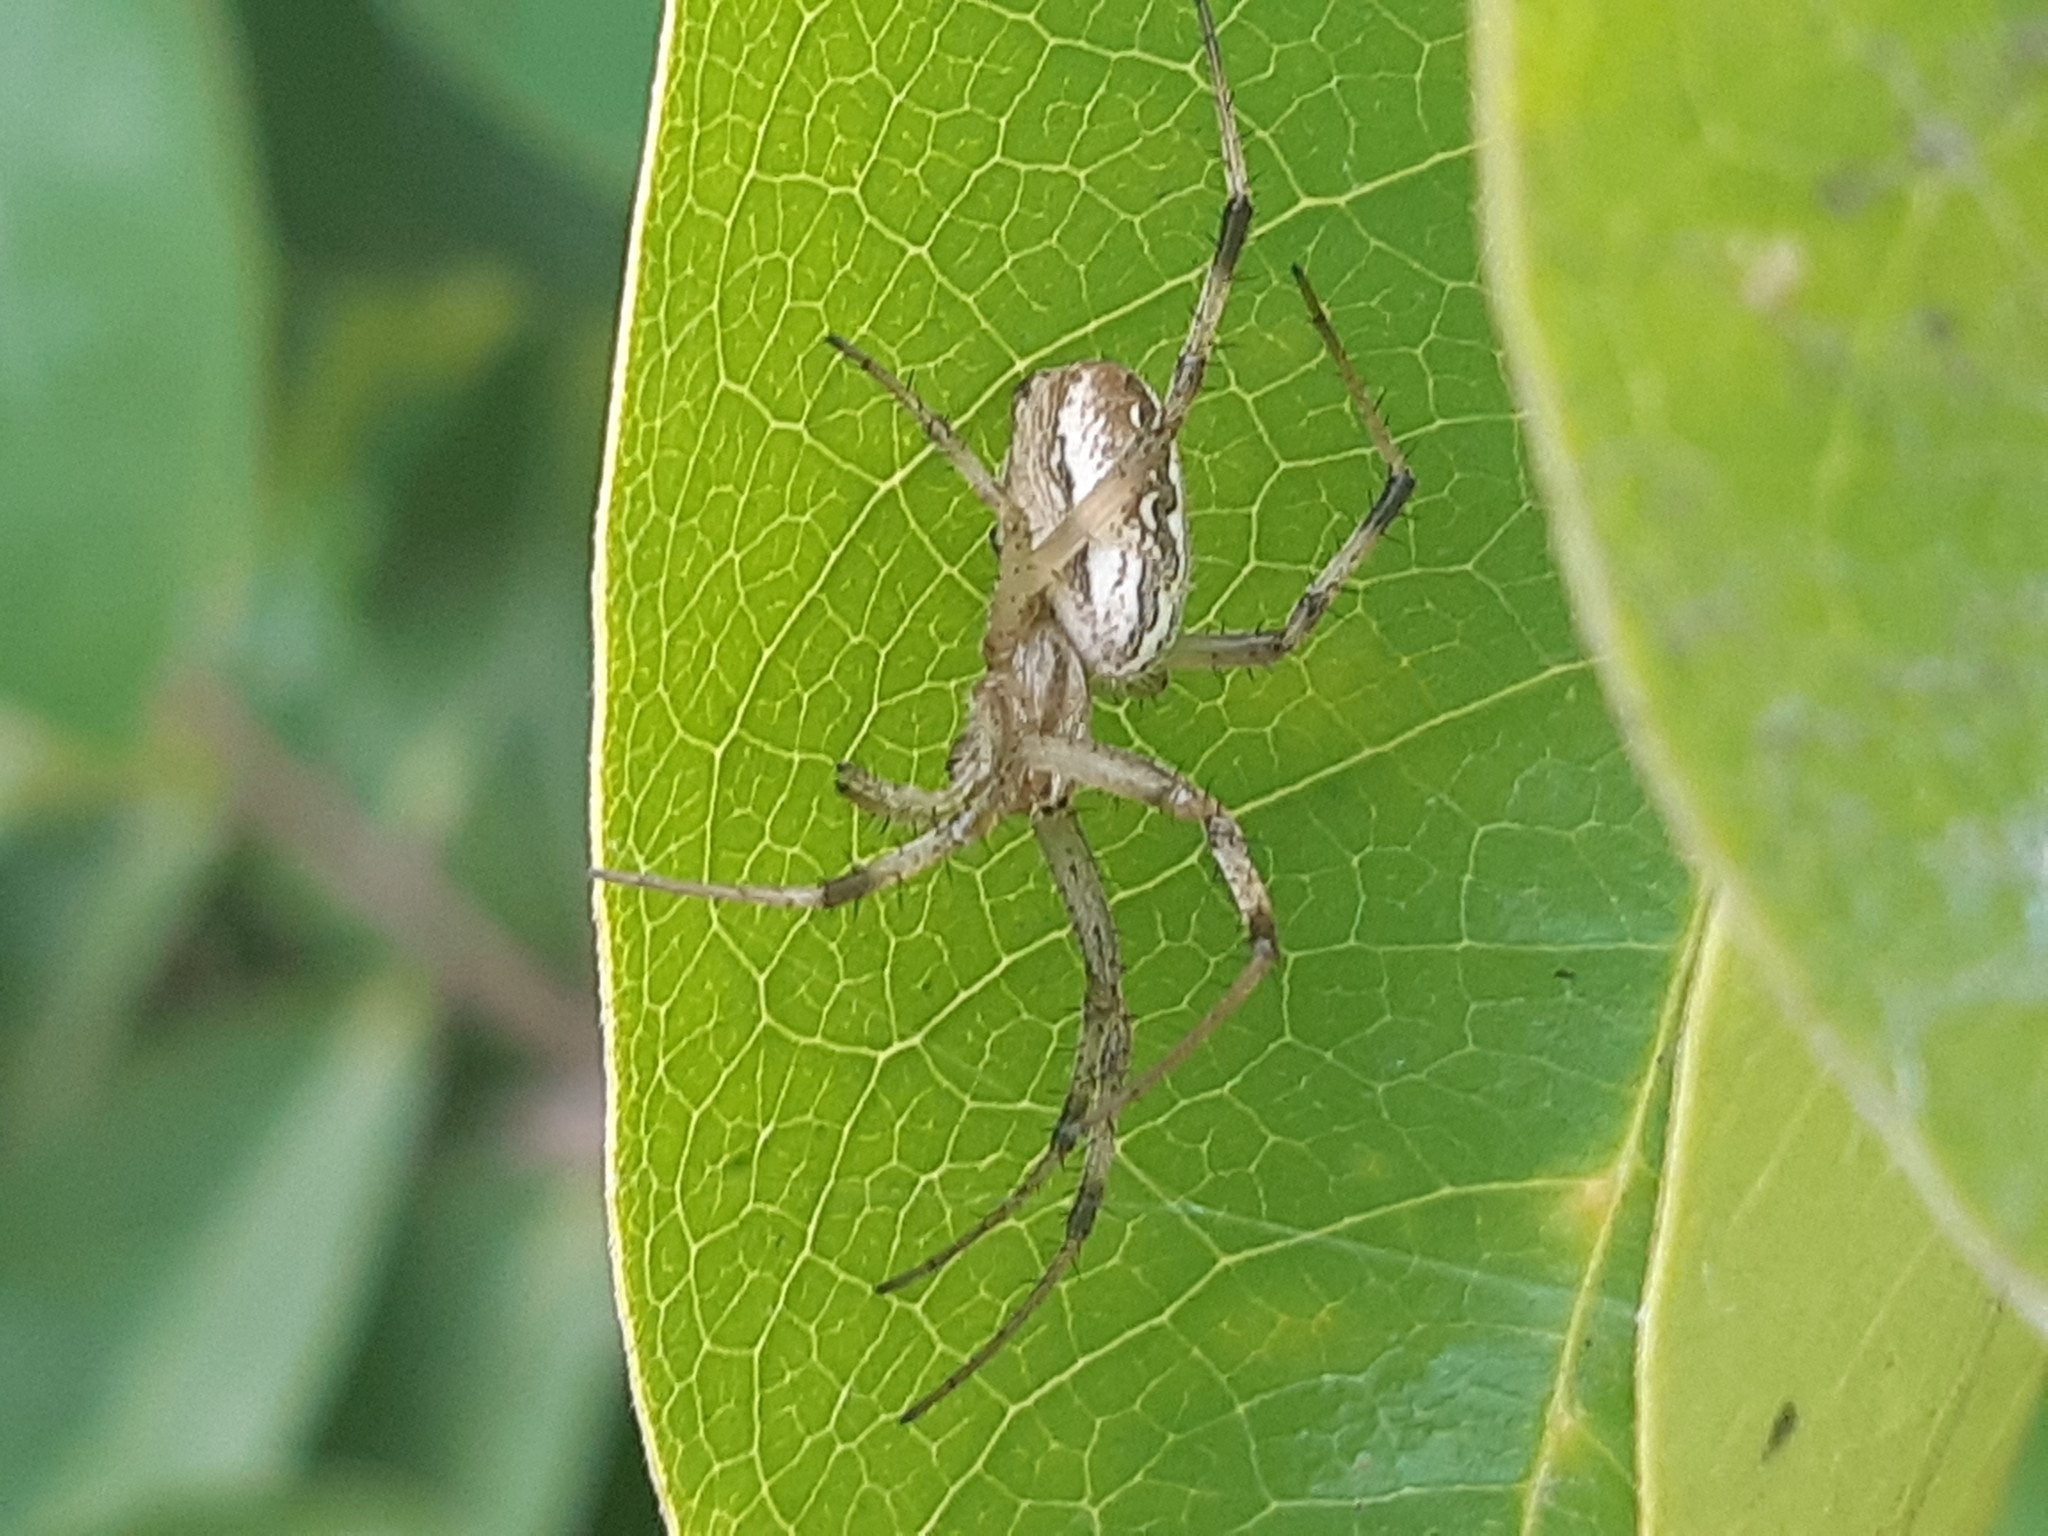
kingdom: Animalia
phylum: Arthropoda
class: Arachnida
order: Araneae
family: Araneidae
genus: Neoscona
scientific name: Neoscona moreli
